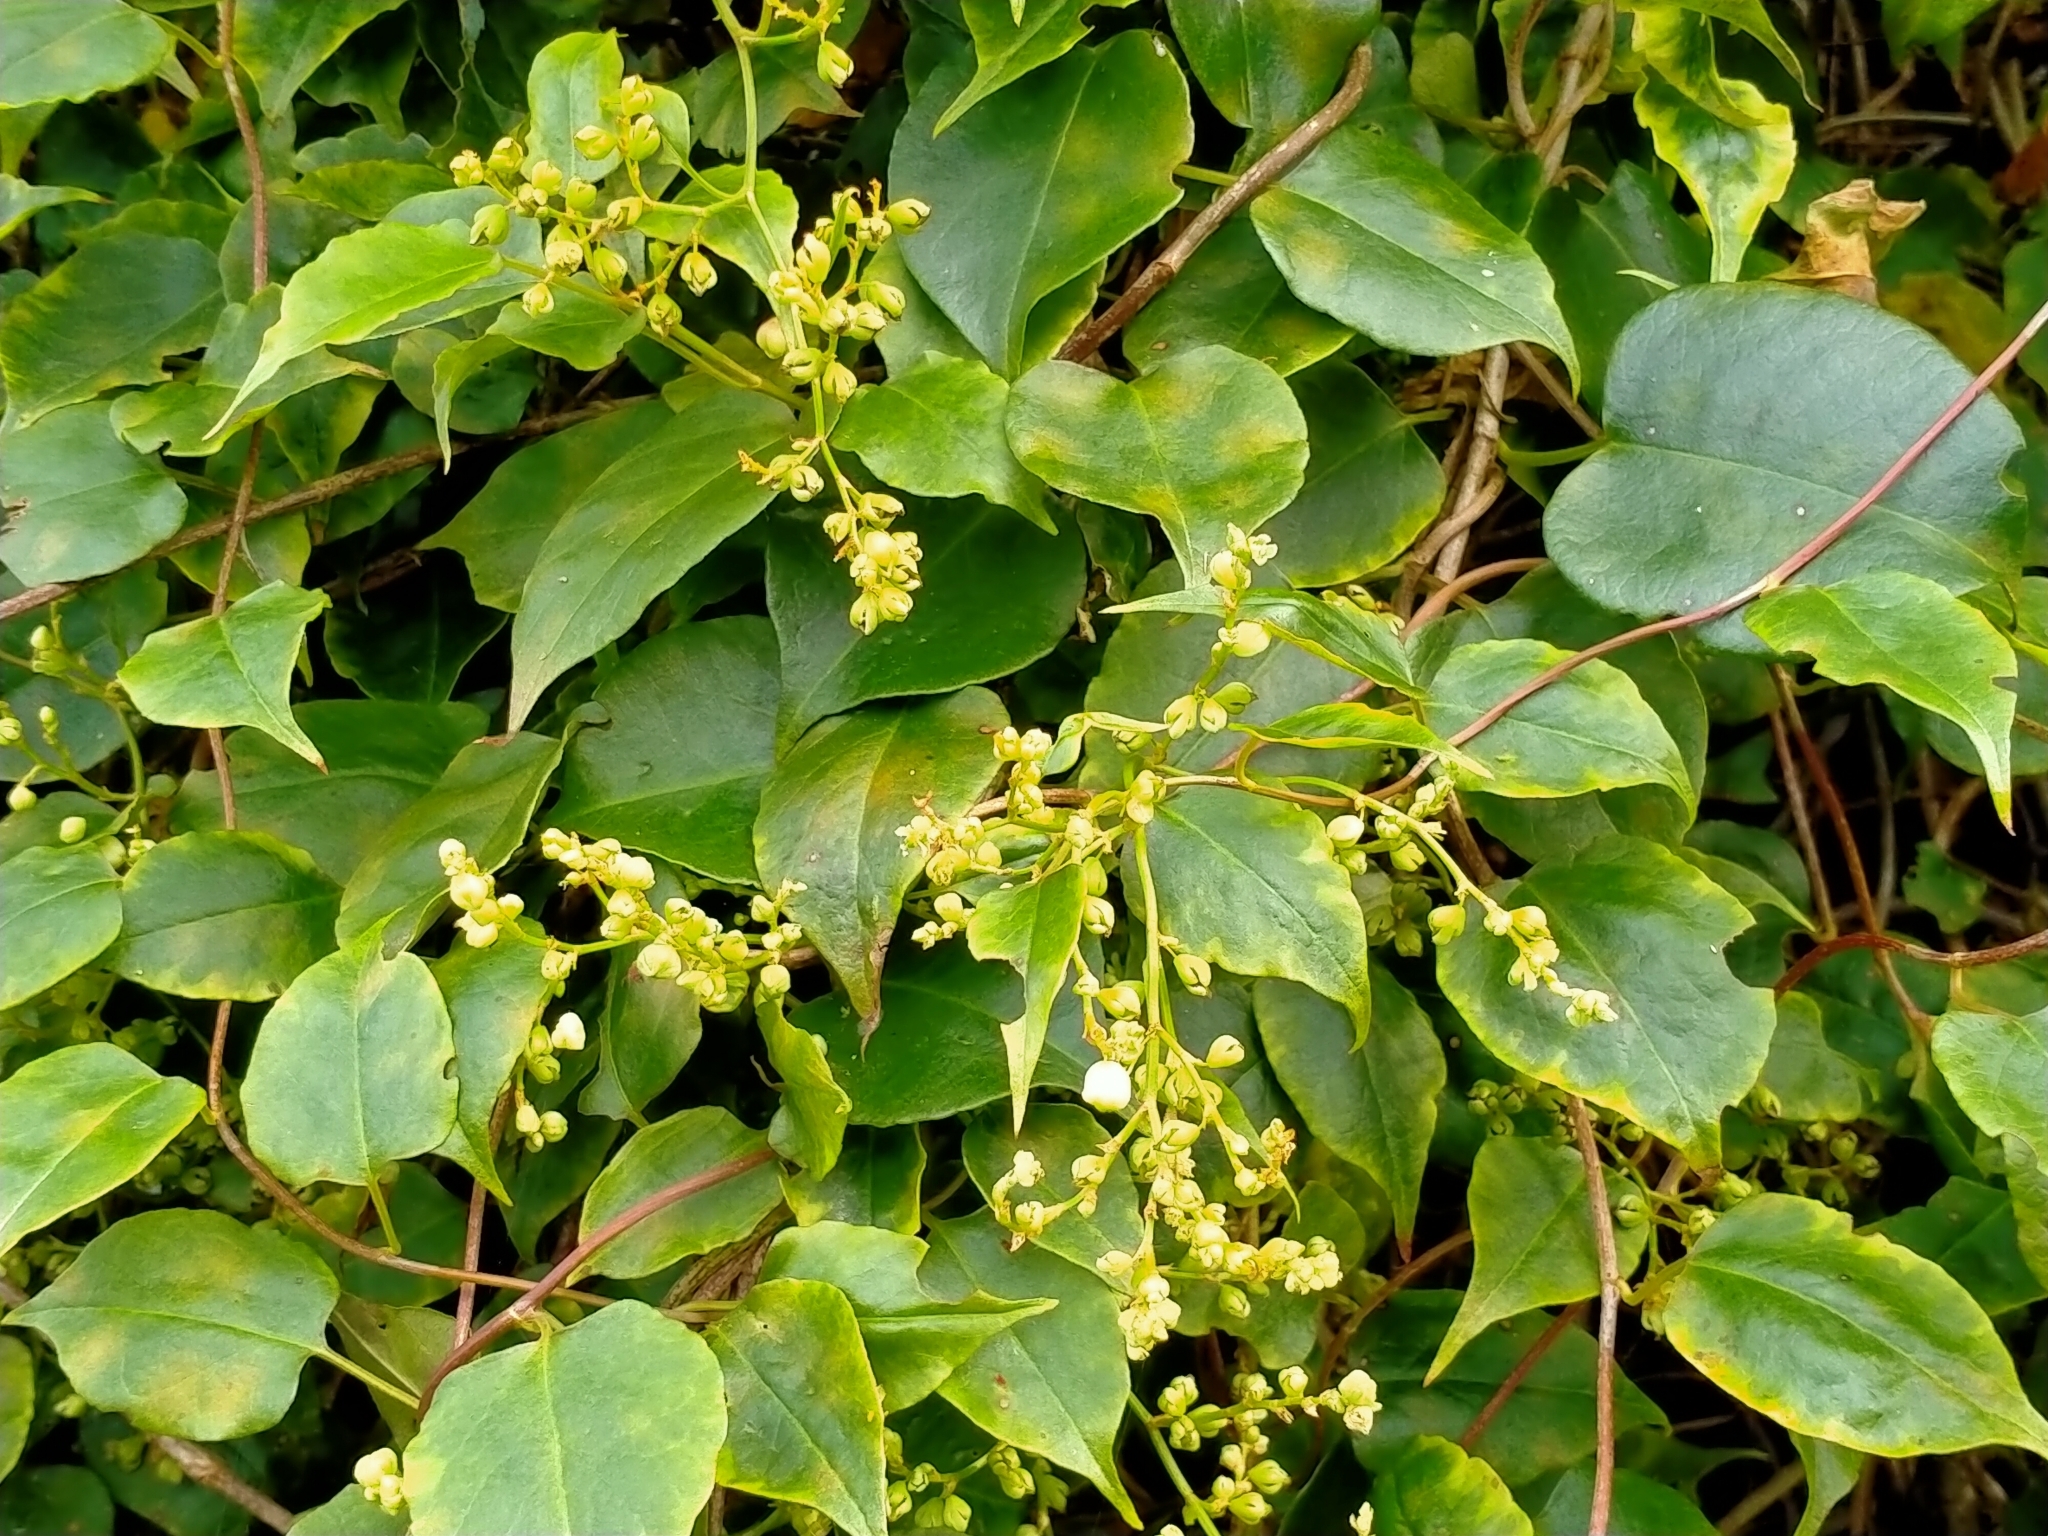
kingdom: Plantae
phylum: Tracheophyta
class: Magnoliopsida
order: Caryophyllales
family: Polygonaceae
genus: Muehlenbeckia
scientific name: Muehlenbeckia australis
